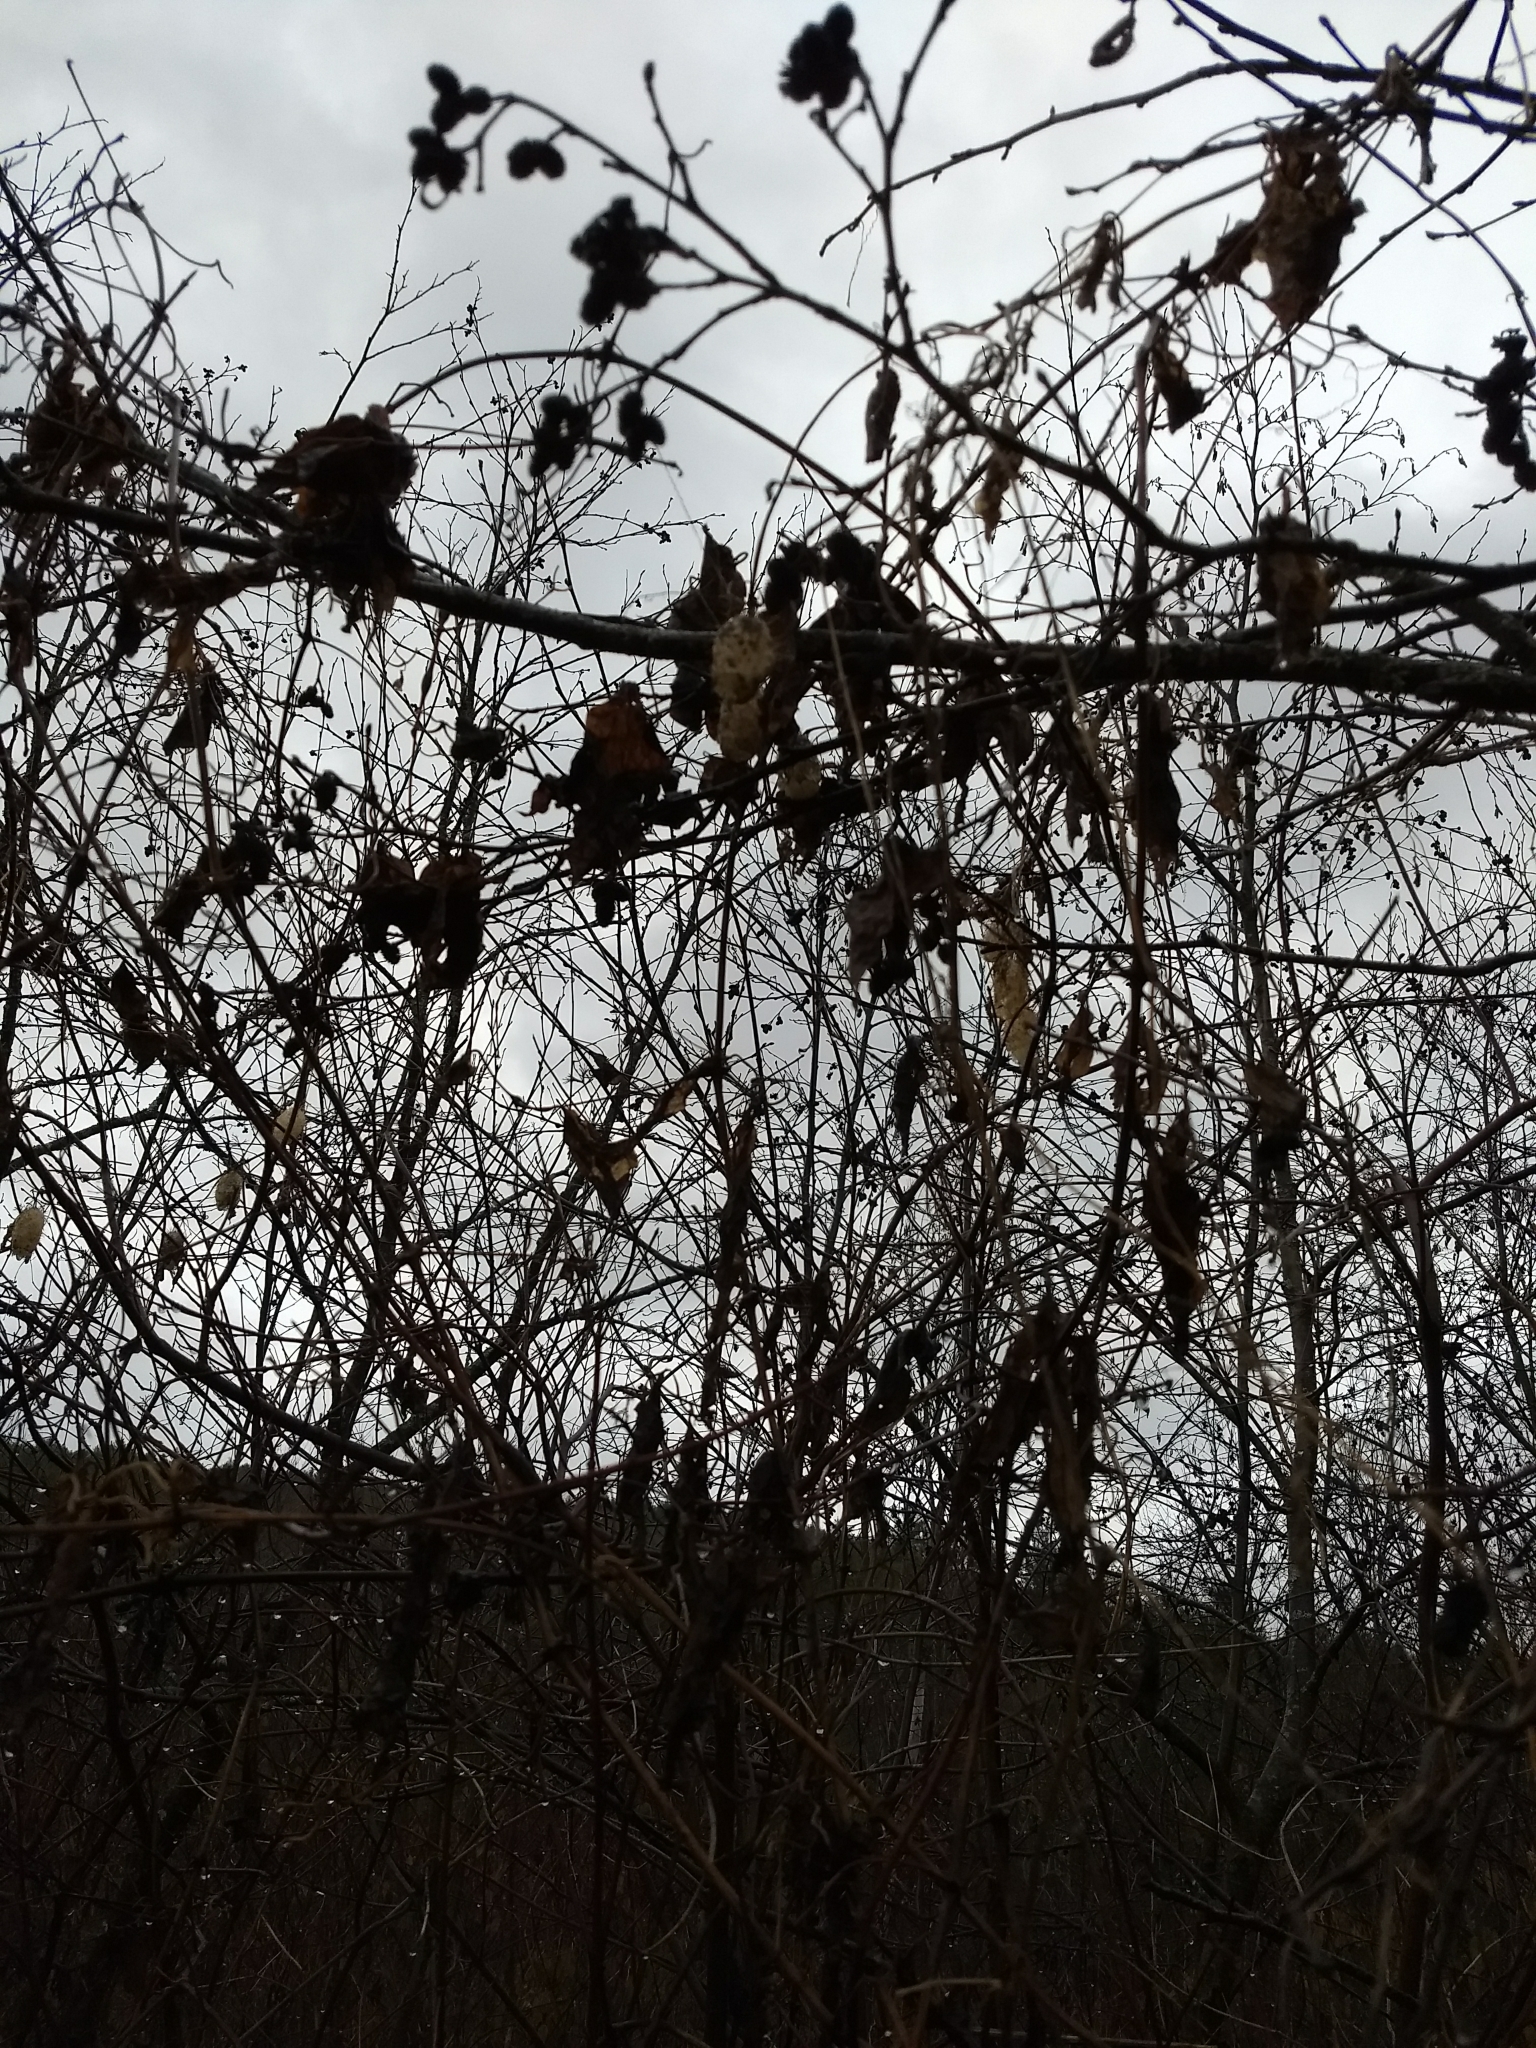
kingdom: Plantae
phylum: Tracheophyta
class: Magnoliopsida
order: Cucurbitales
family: Cucurbitaceae
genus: Echinocystis
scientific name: Echinocystis lobata
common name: Wild cucumber
